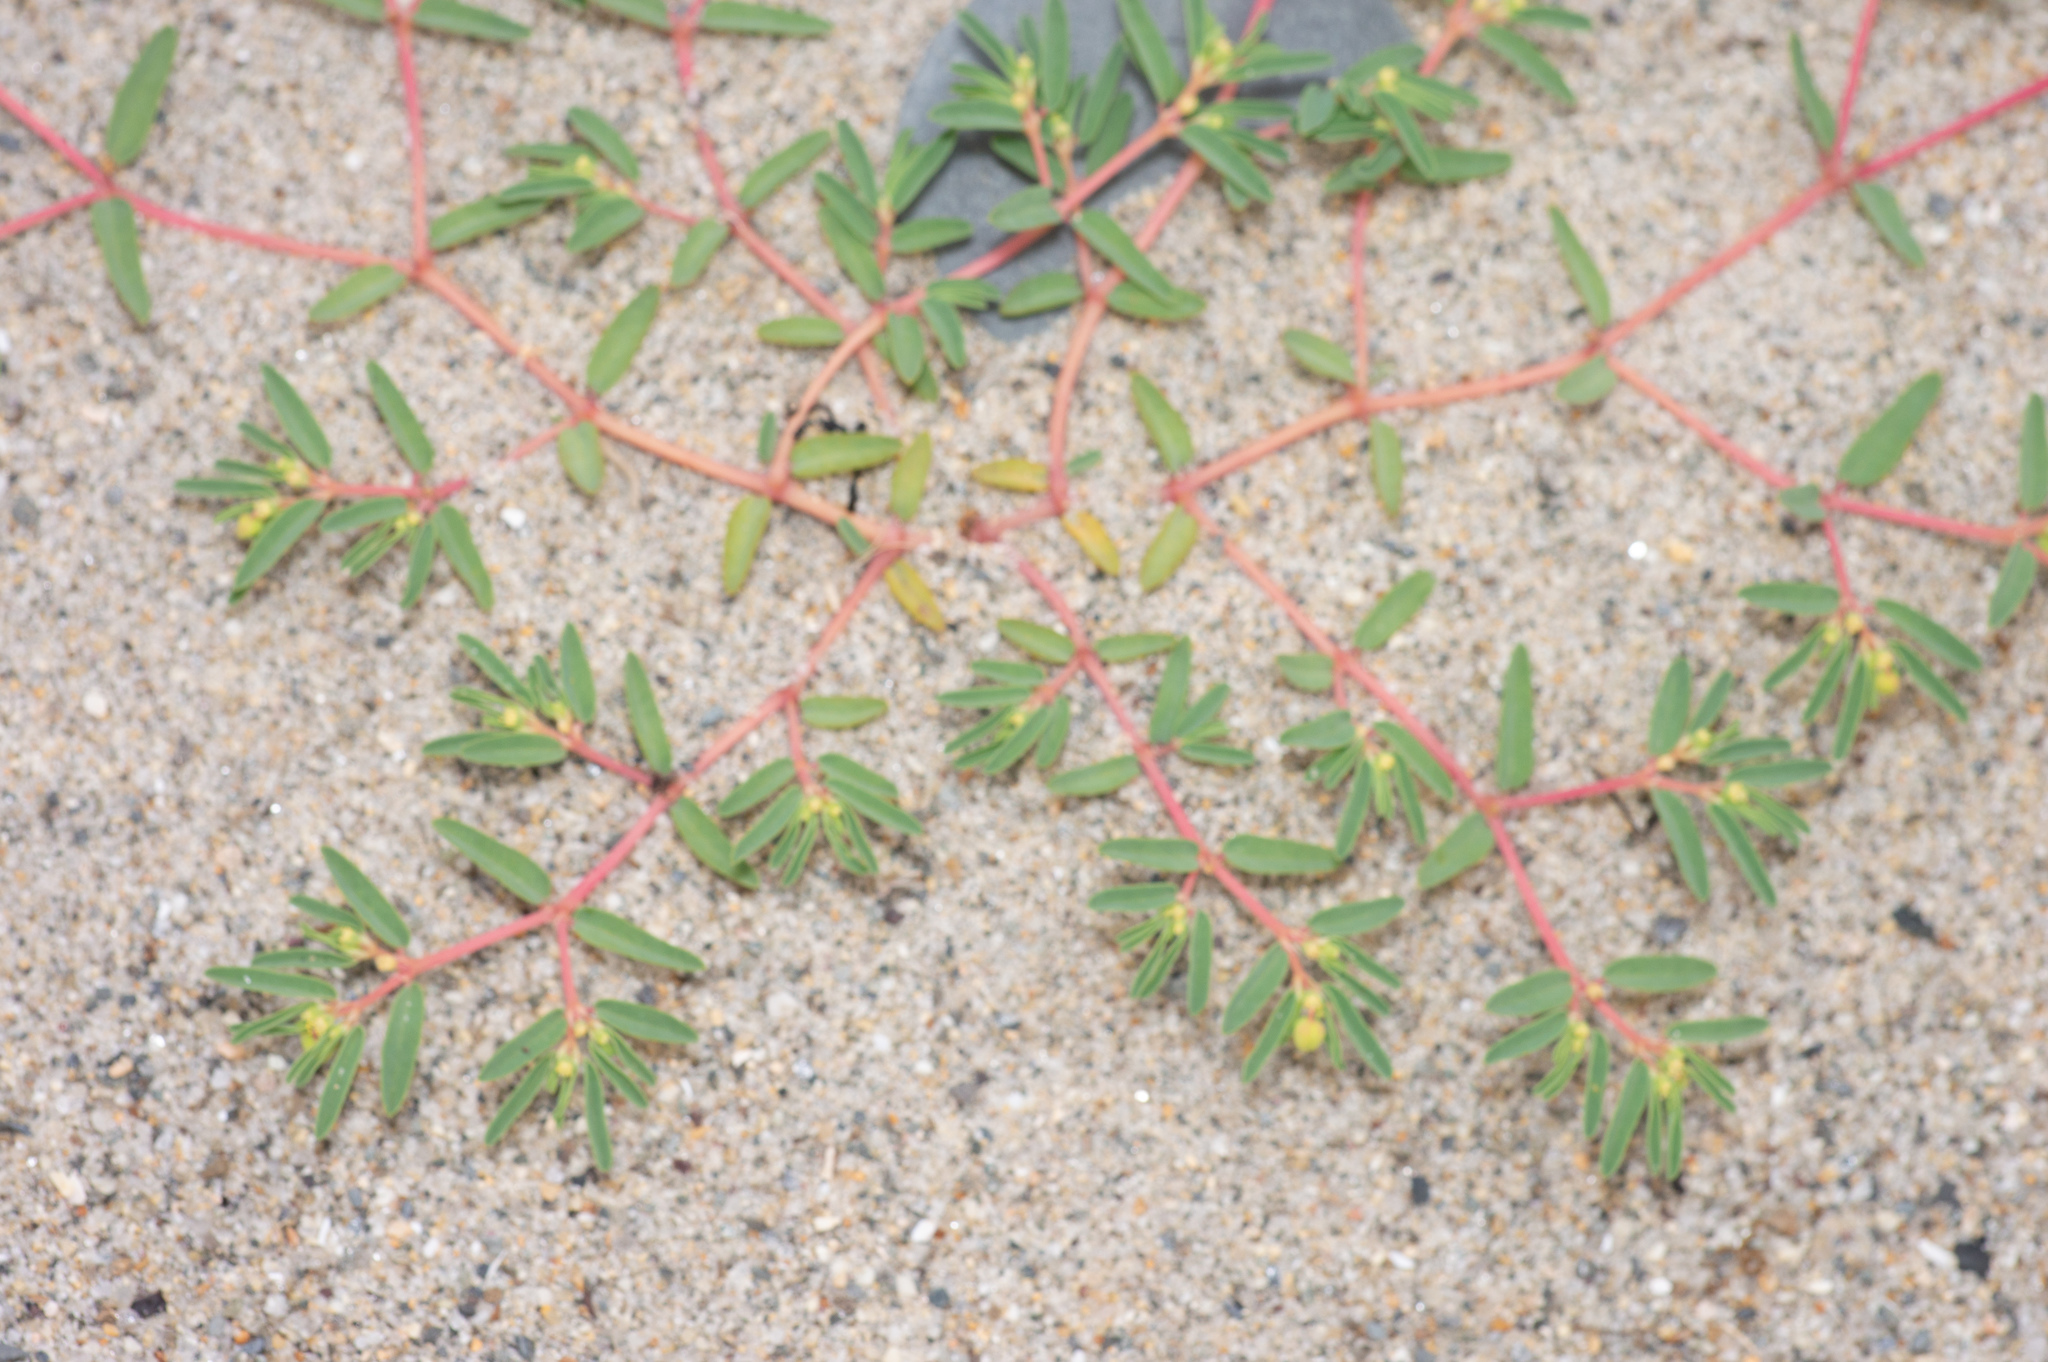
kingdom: Plantae
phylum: Tracheophyta
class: Magnoliopsida
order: Malpighiales
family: Euphorbiaceae
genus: Euphorbia
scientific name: Euphorbia polygonifolia
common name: Knotweed spurge
